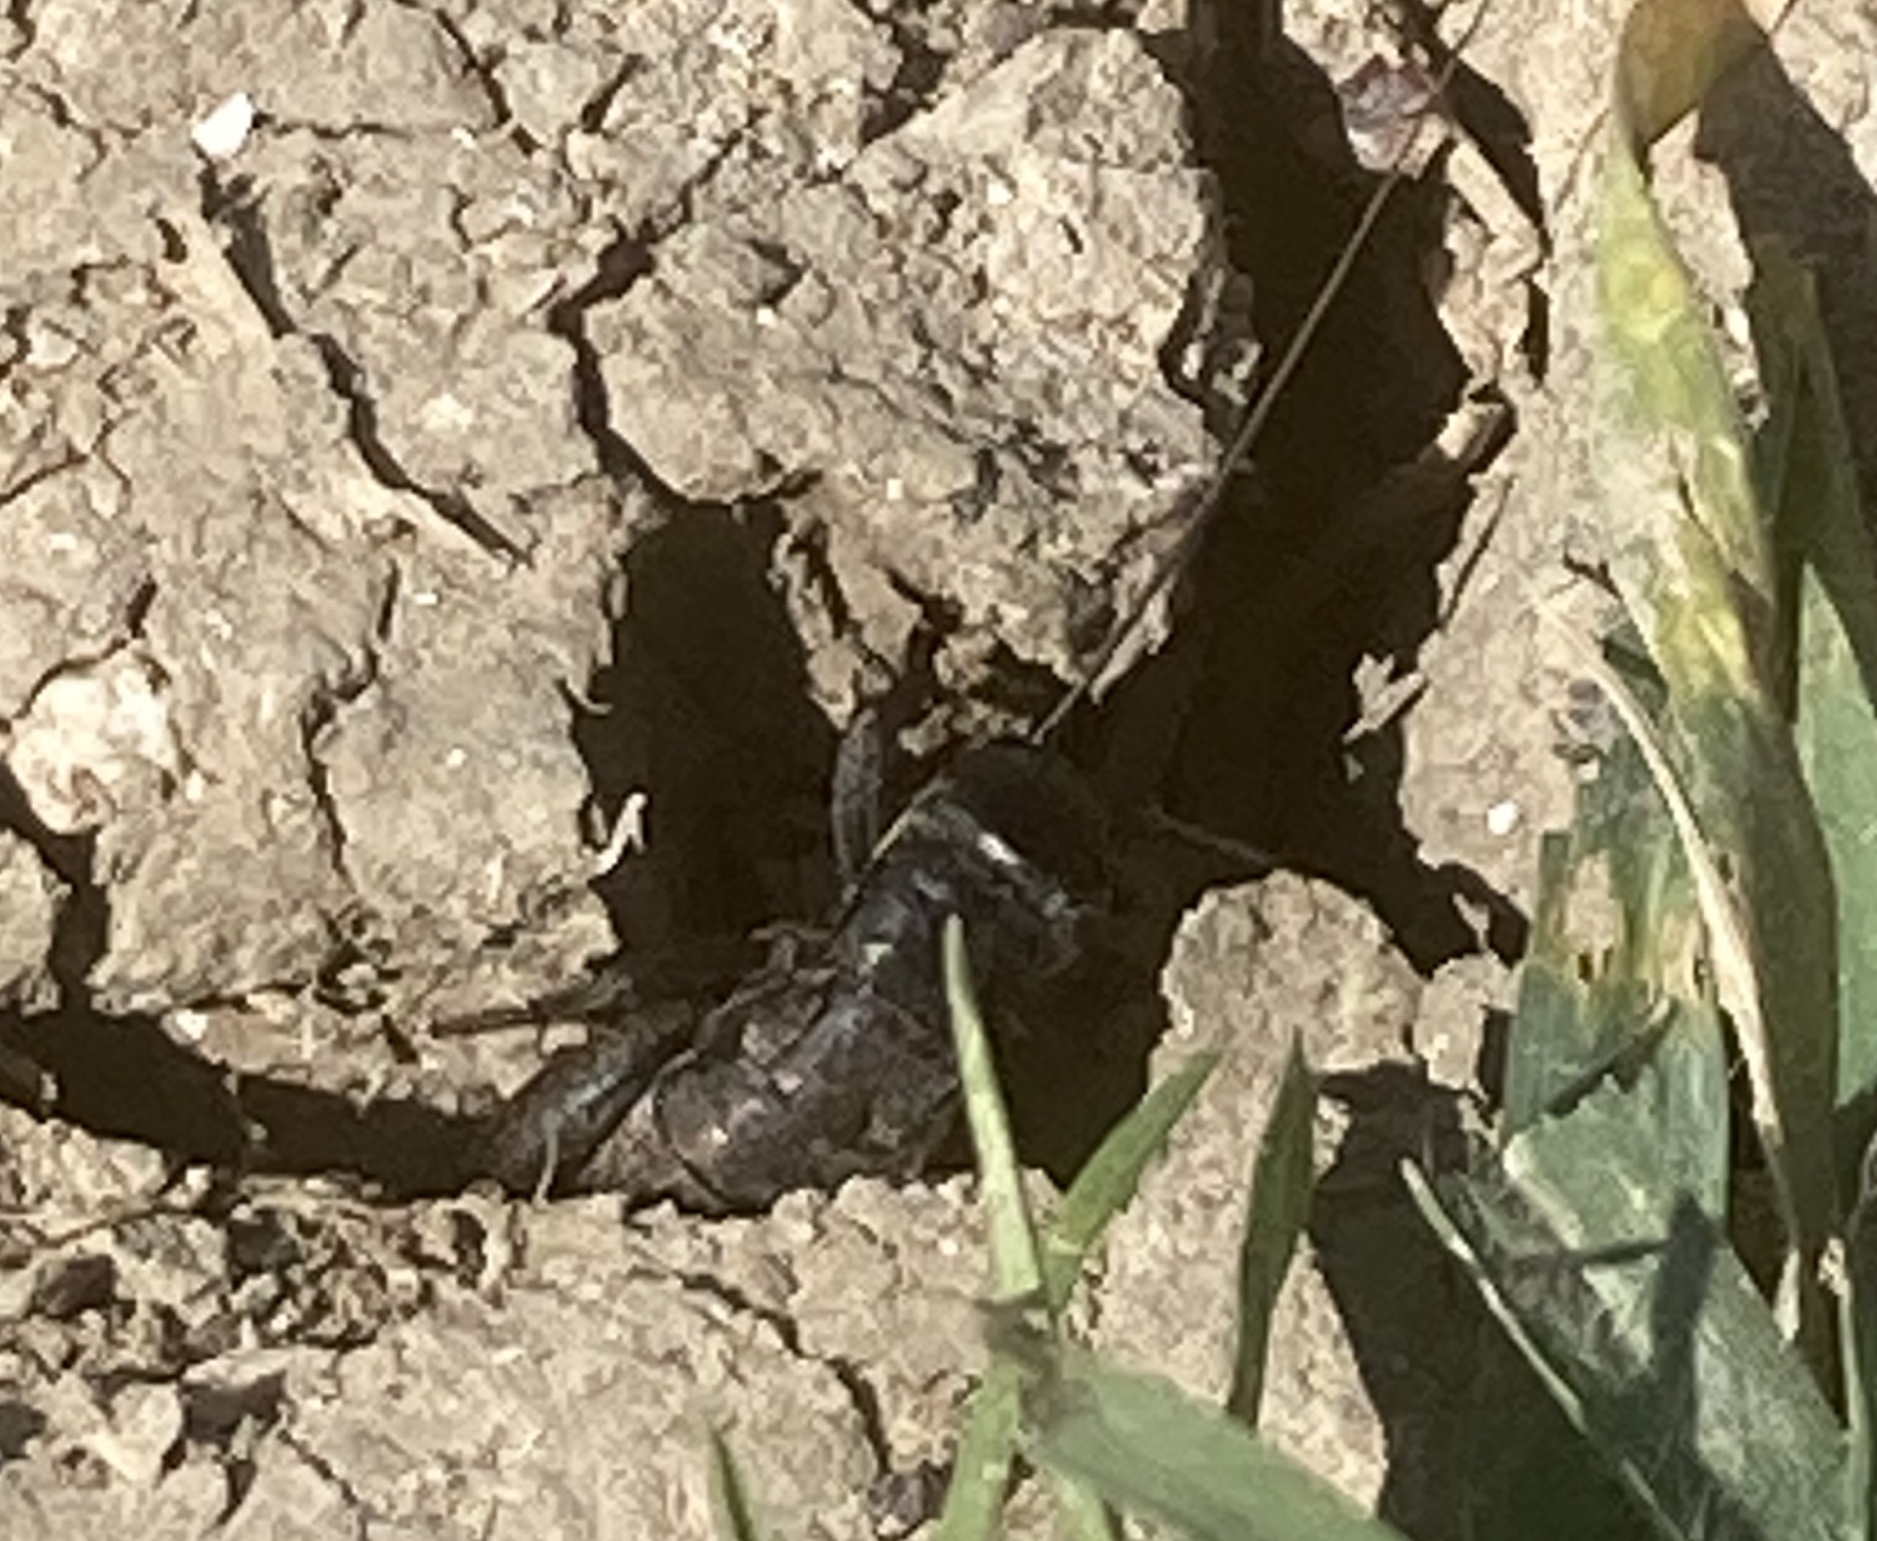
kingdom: Animalia
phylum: Arthropoda
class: Insecta
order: Orthoptera
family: Gryllidae
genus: Gryllus
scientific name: Gryllus campestris
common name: Field cricket
